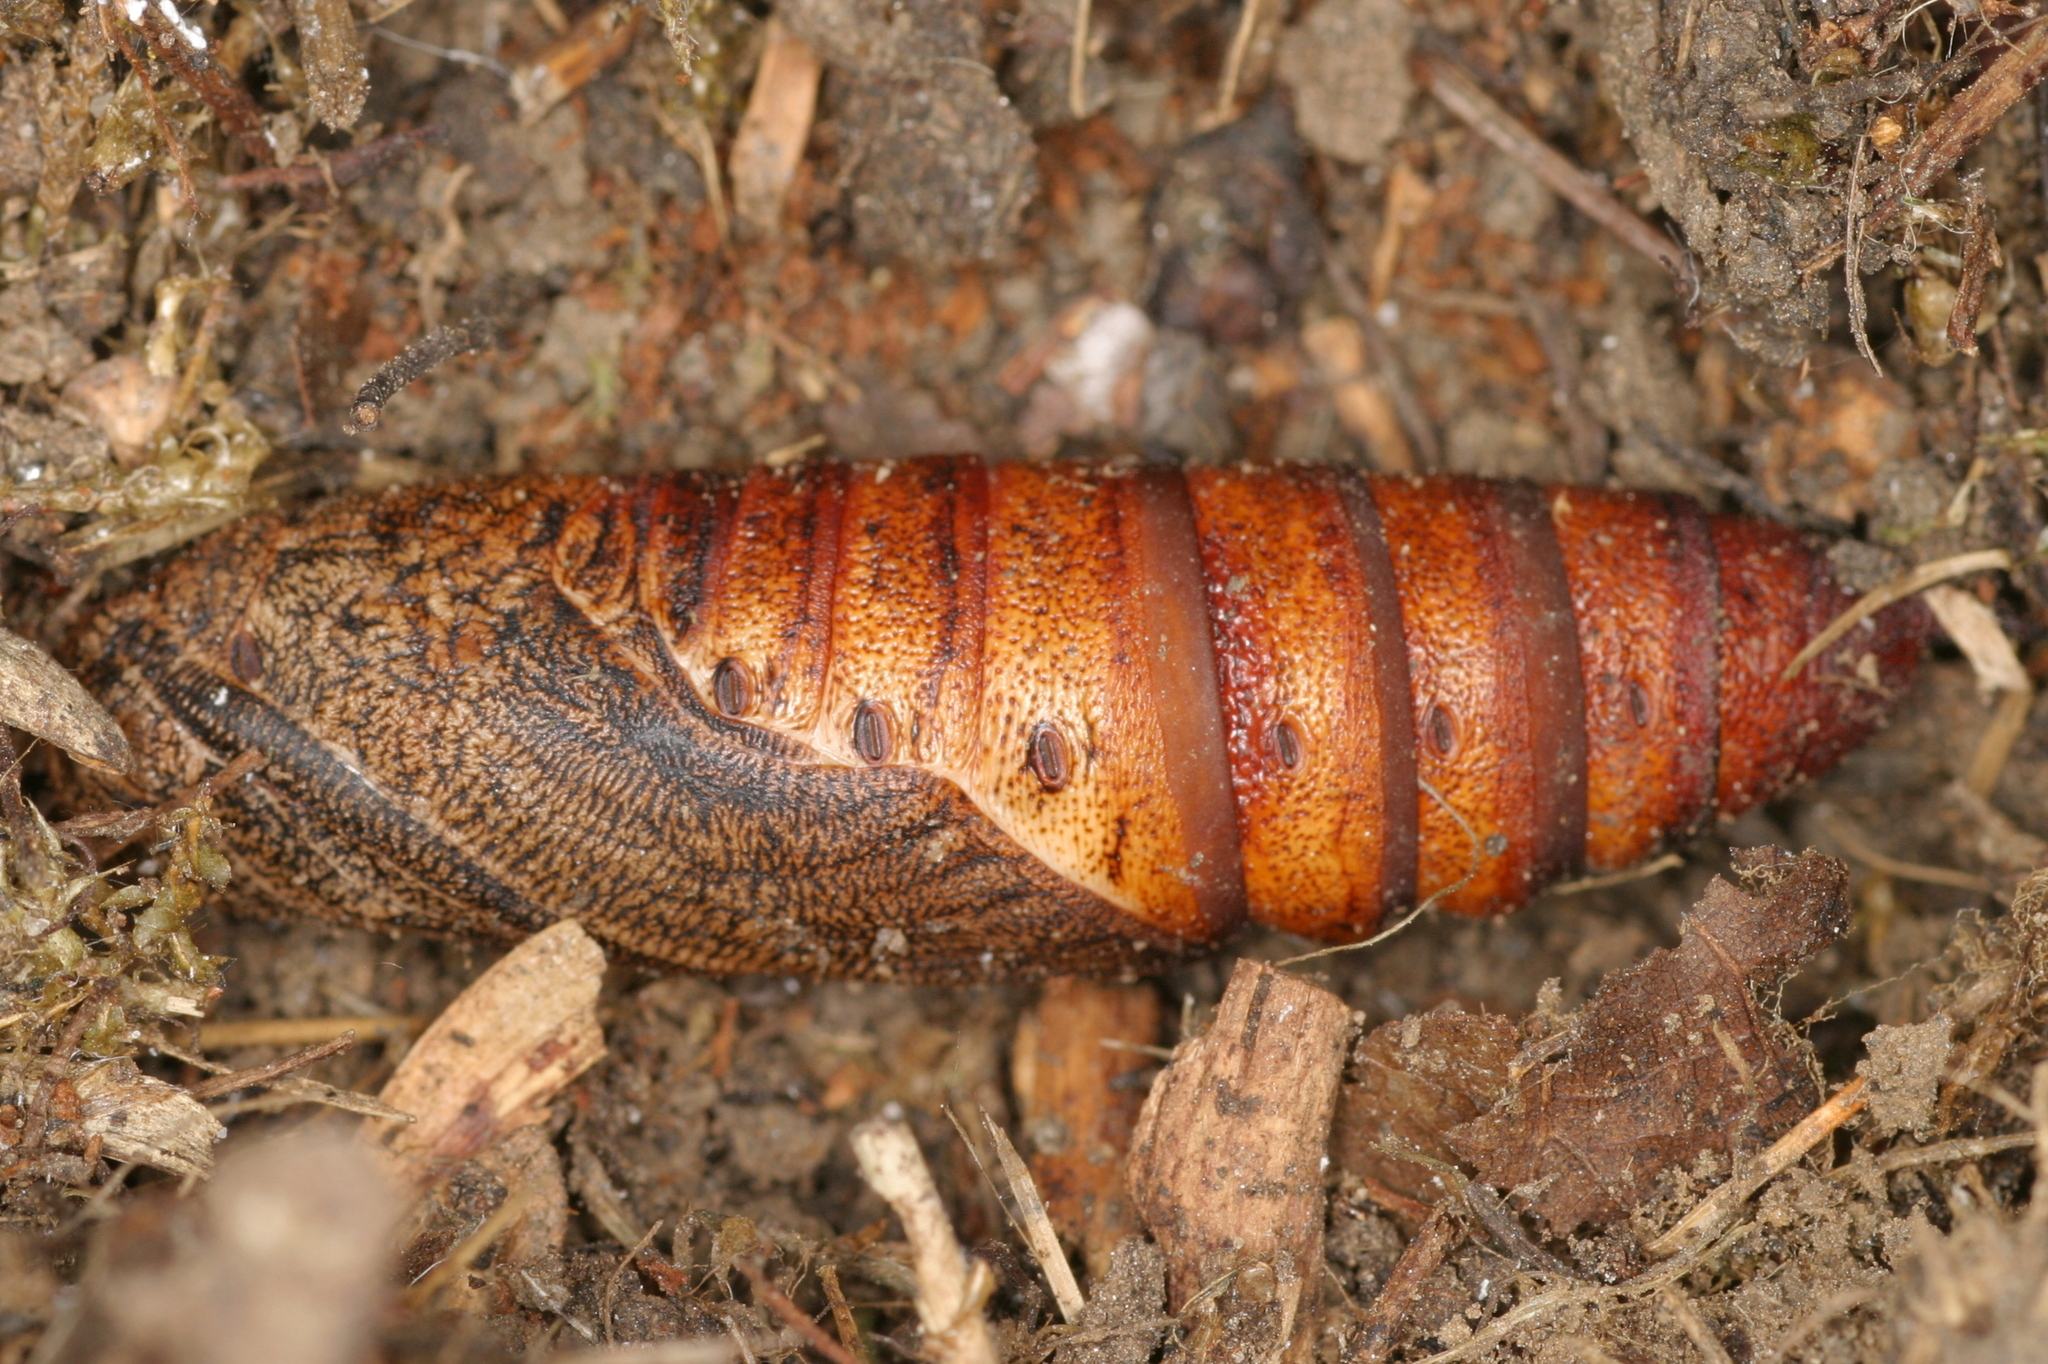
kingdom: Animalia
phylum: Arthropoda
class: Insecta
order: Lepidoptera
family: Sphingidae
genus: Hyles
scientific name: Hyles gallii
